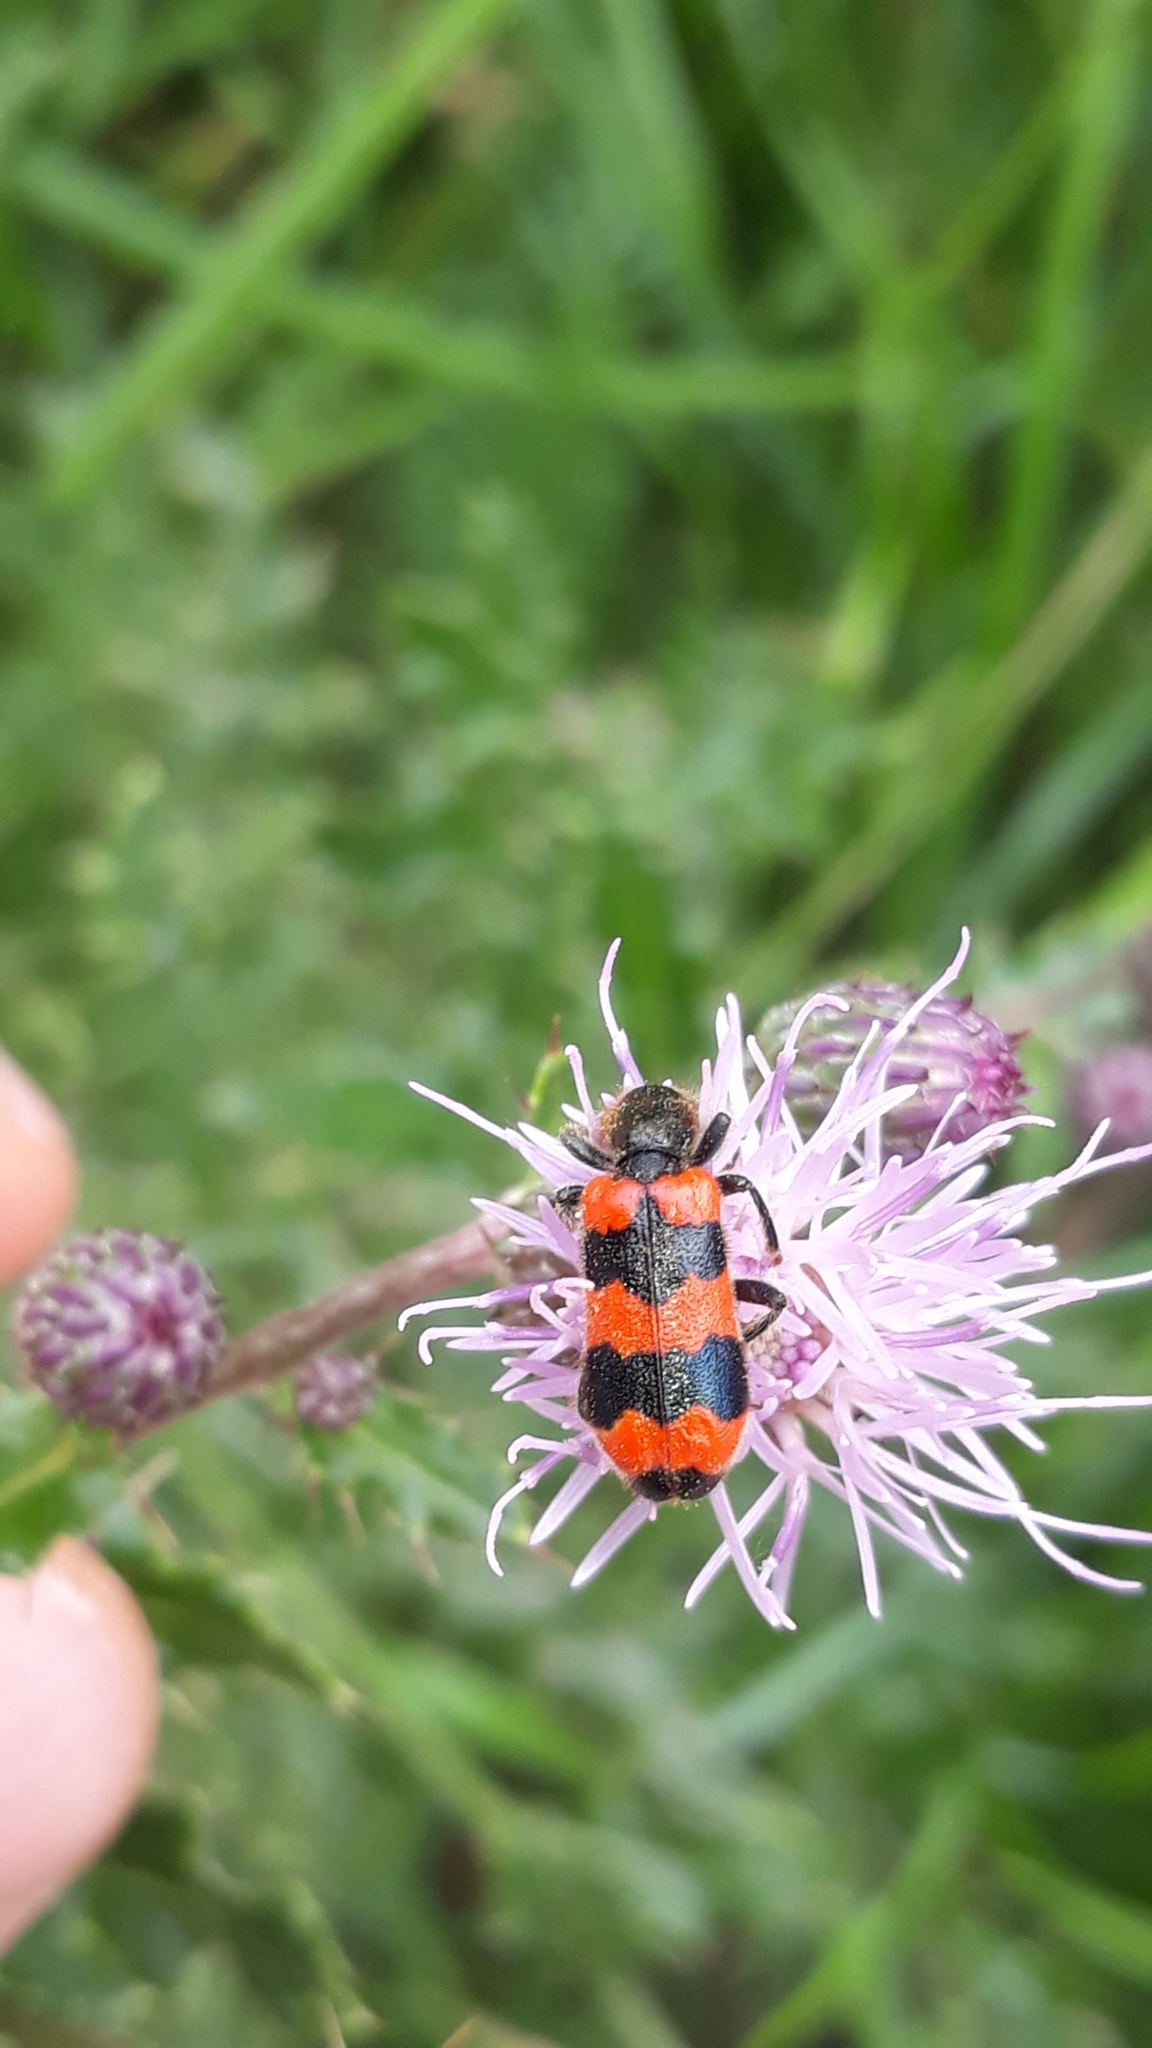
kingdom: Animalia
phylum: Arthropoda
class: Insecta
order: Coleoptera
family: Cleridae
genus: Trichodes
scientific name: Trichodes apiarius
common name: Bee-eating beetle
